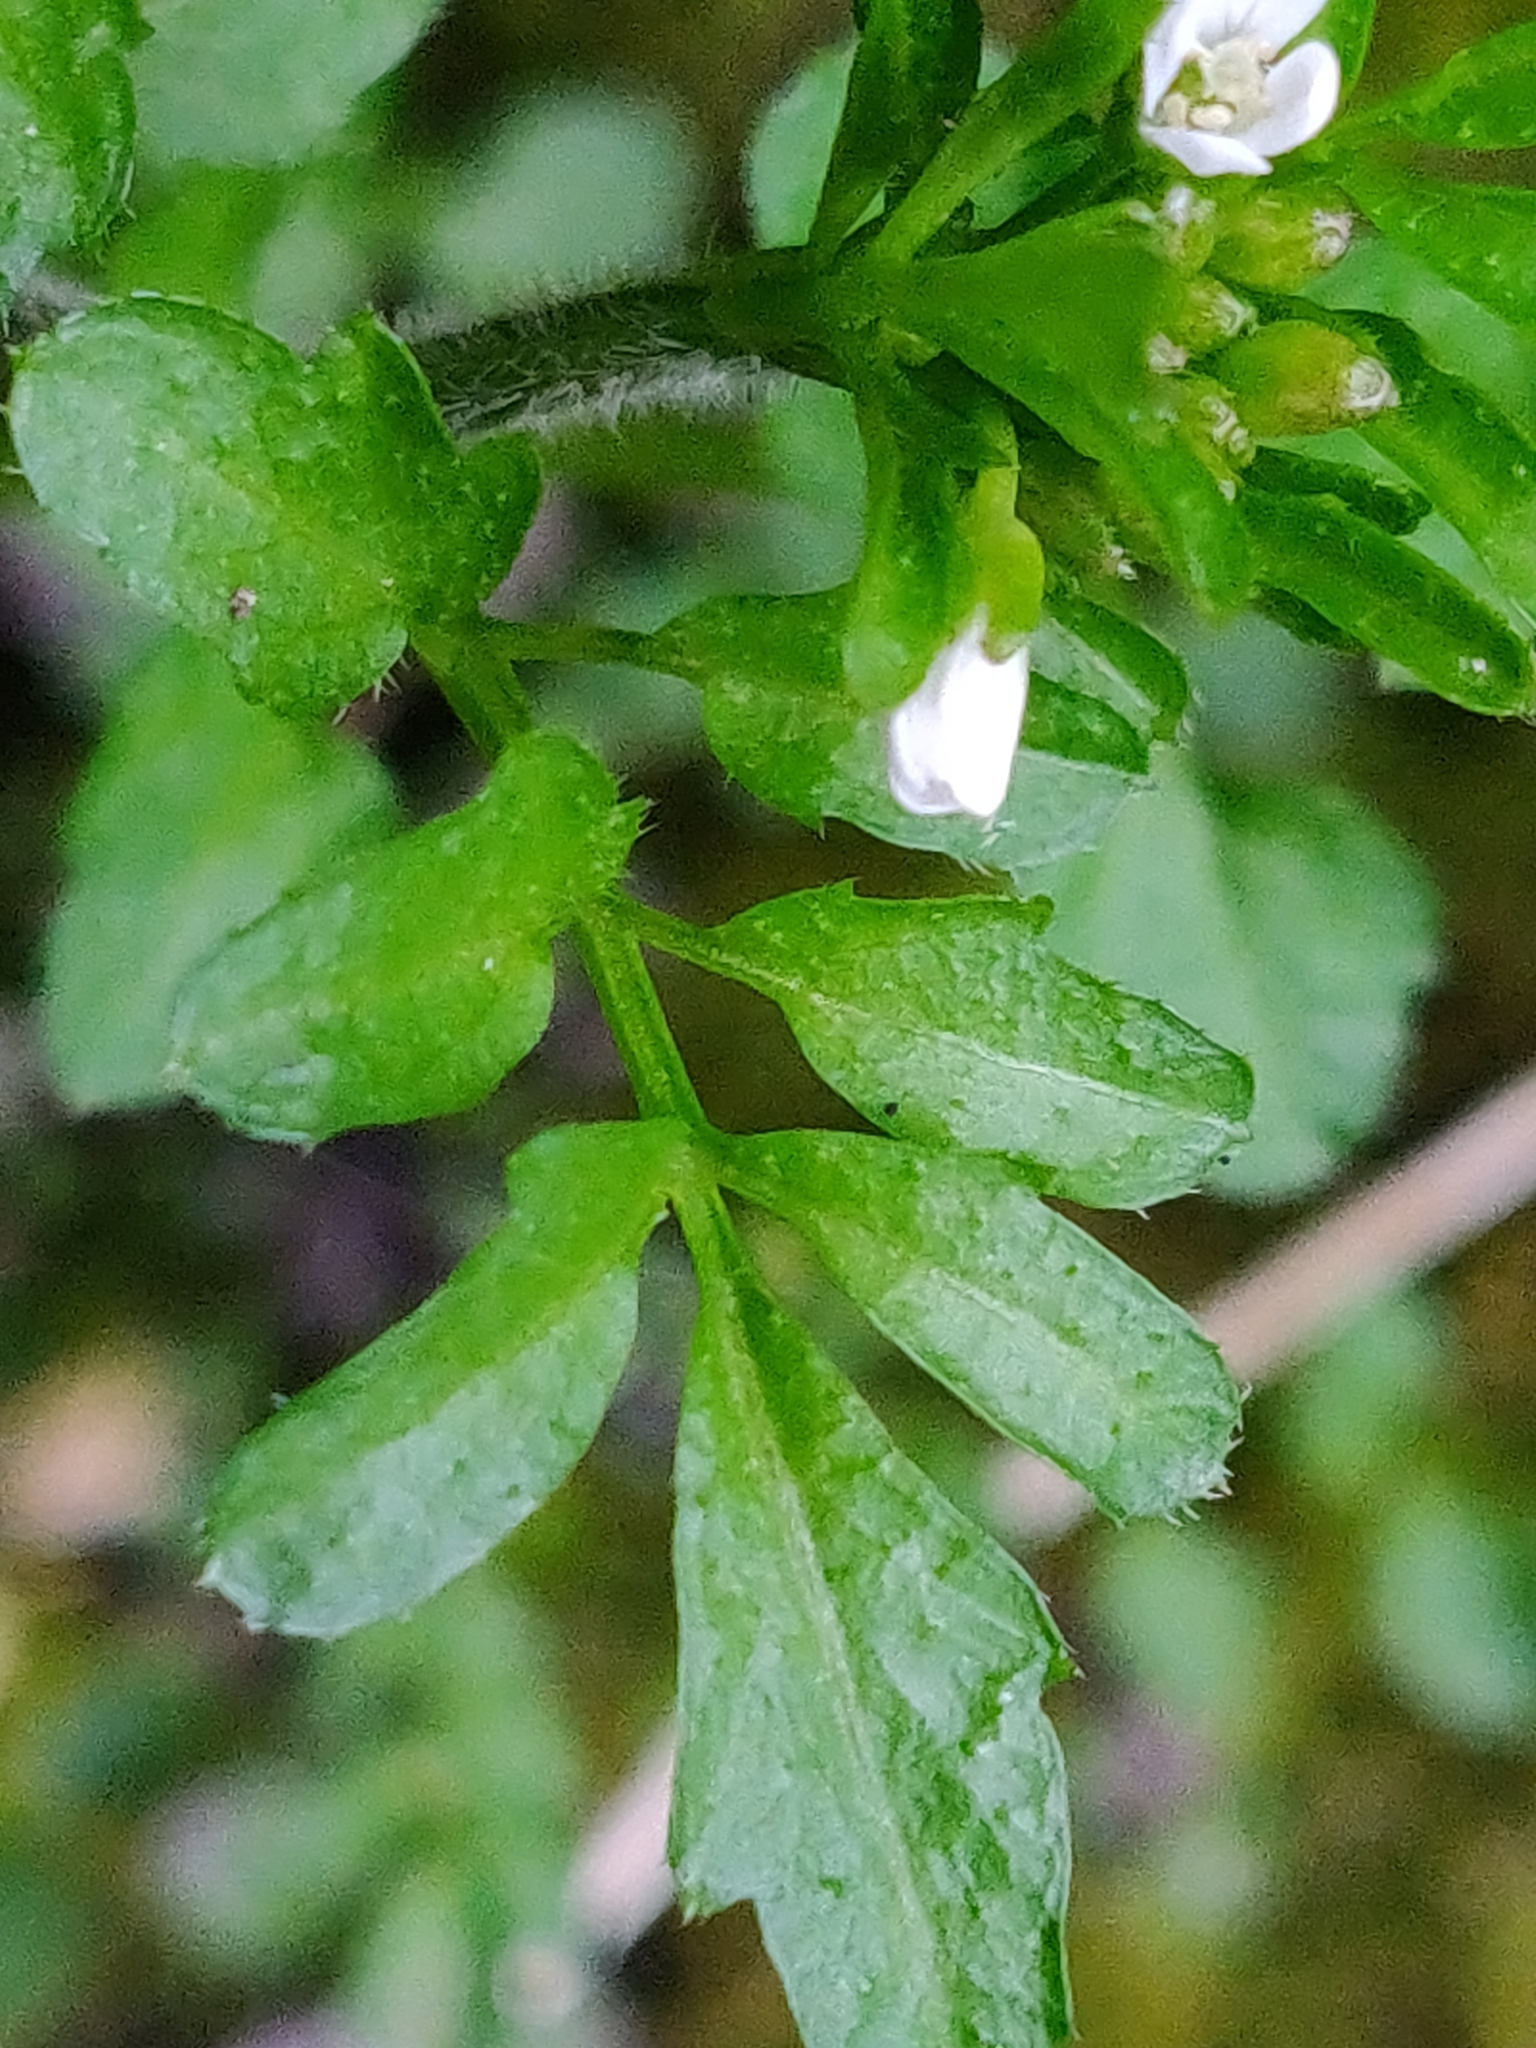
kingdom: Plantae
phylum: Tracheophyta
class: Magnoliopsida
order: Brassicales
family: Brassicaceae
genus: Cardamine
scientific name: Cardamine flexuosa
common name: Woodland bittercress
